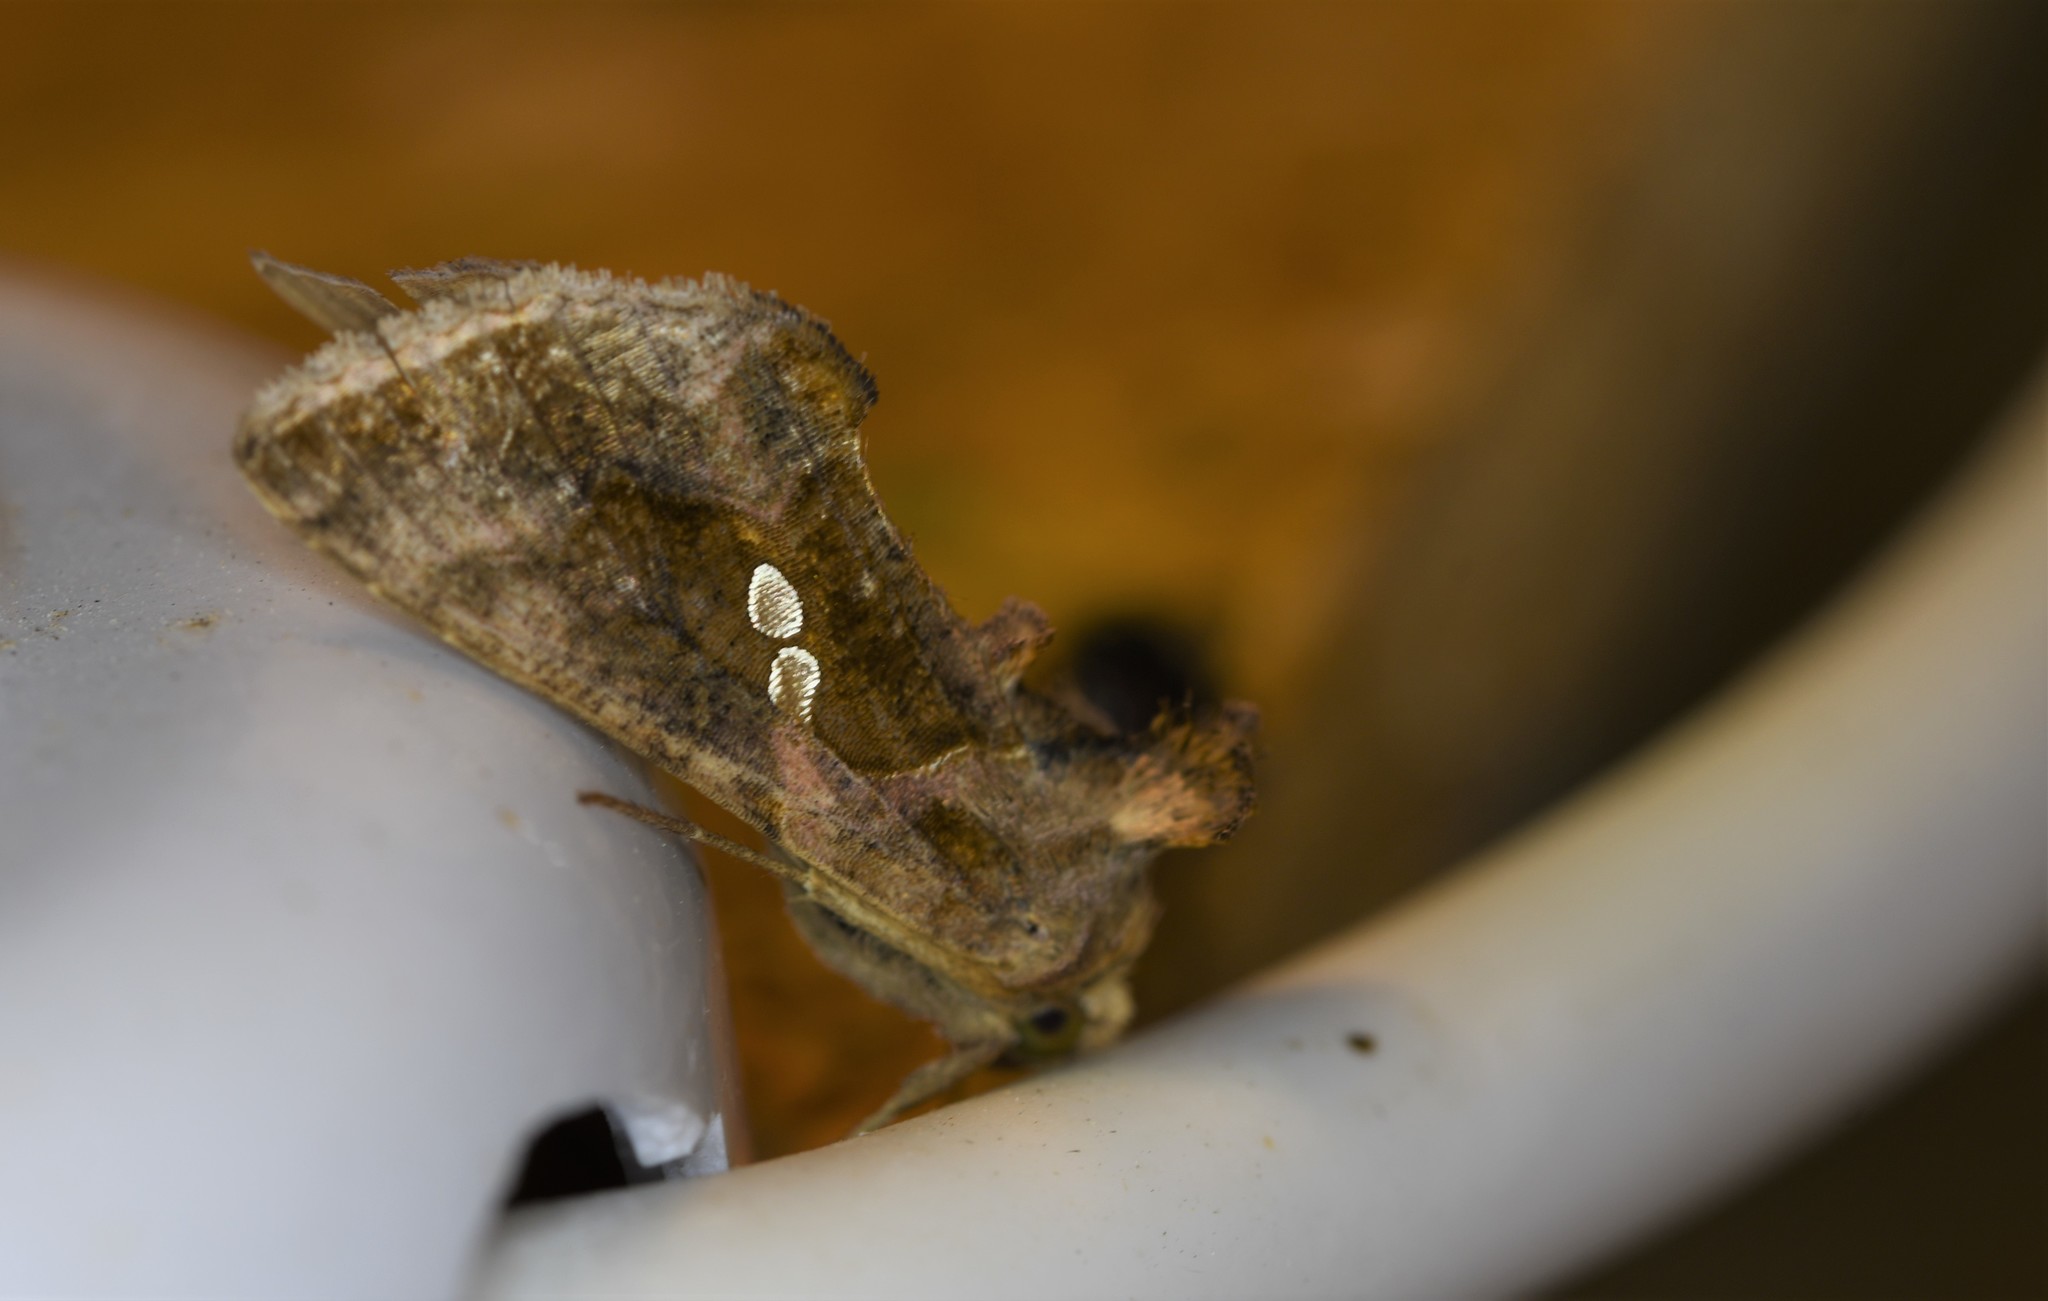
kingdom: Animalia
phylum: Arthropoda
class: Insecta
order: Lepidoptera
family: Noctuidae
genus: Chrysodeixis
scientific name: Chrysodeixis chalcites
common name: Golden twin-spot
